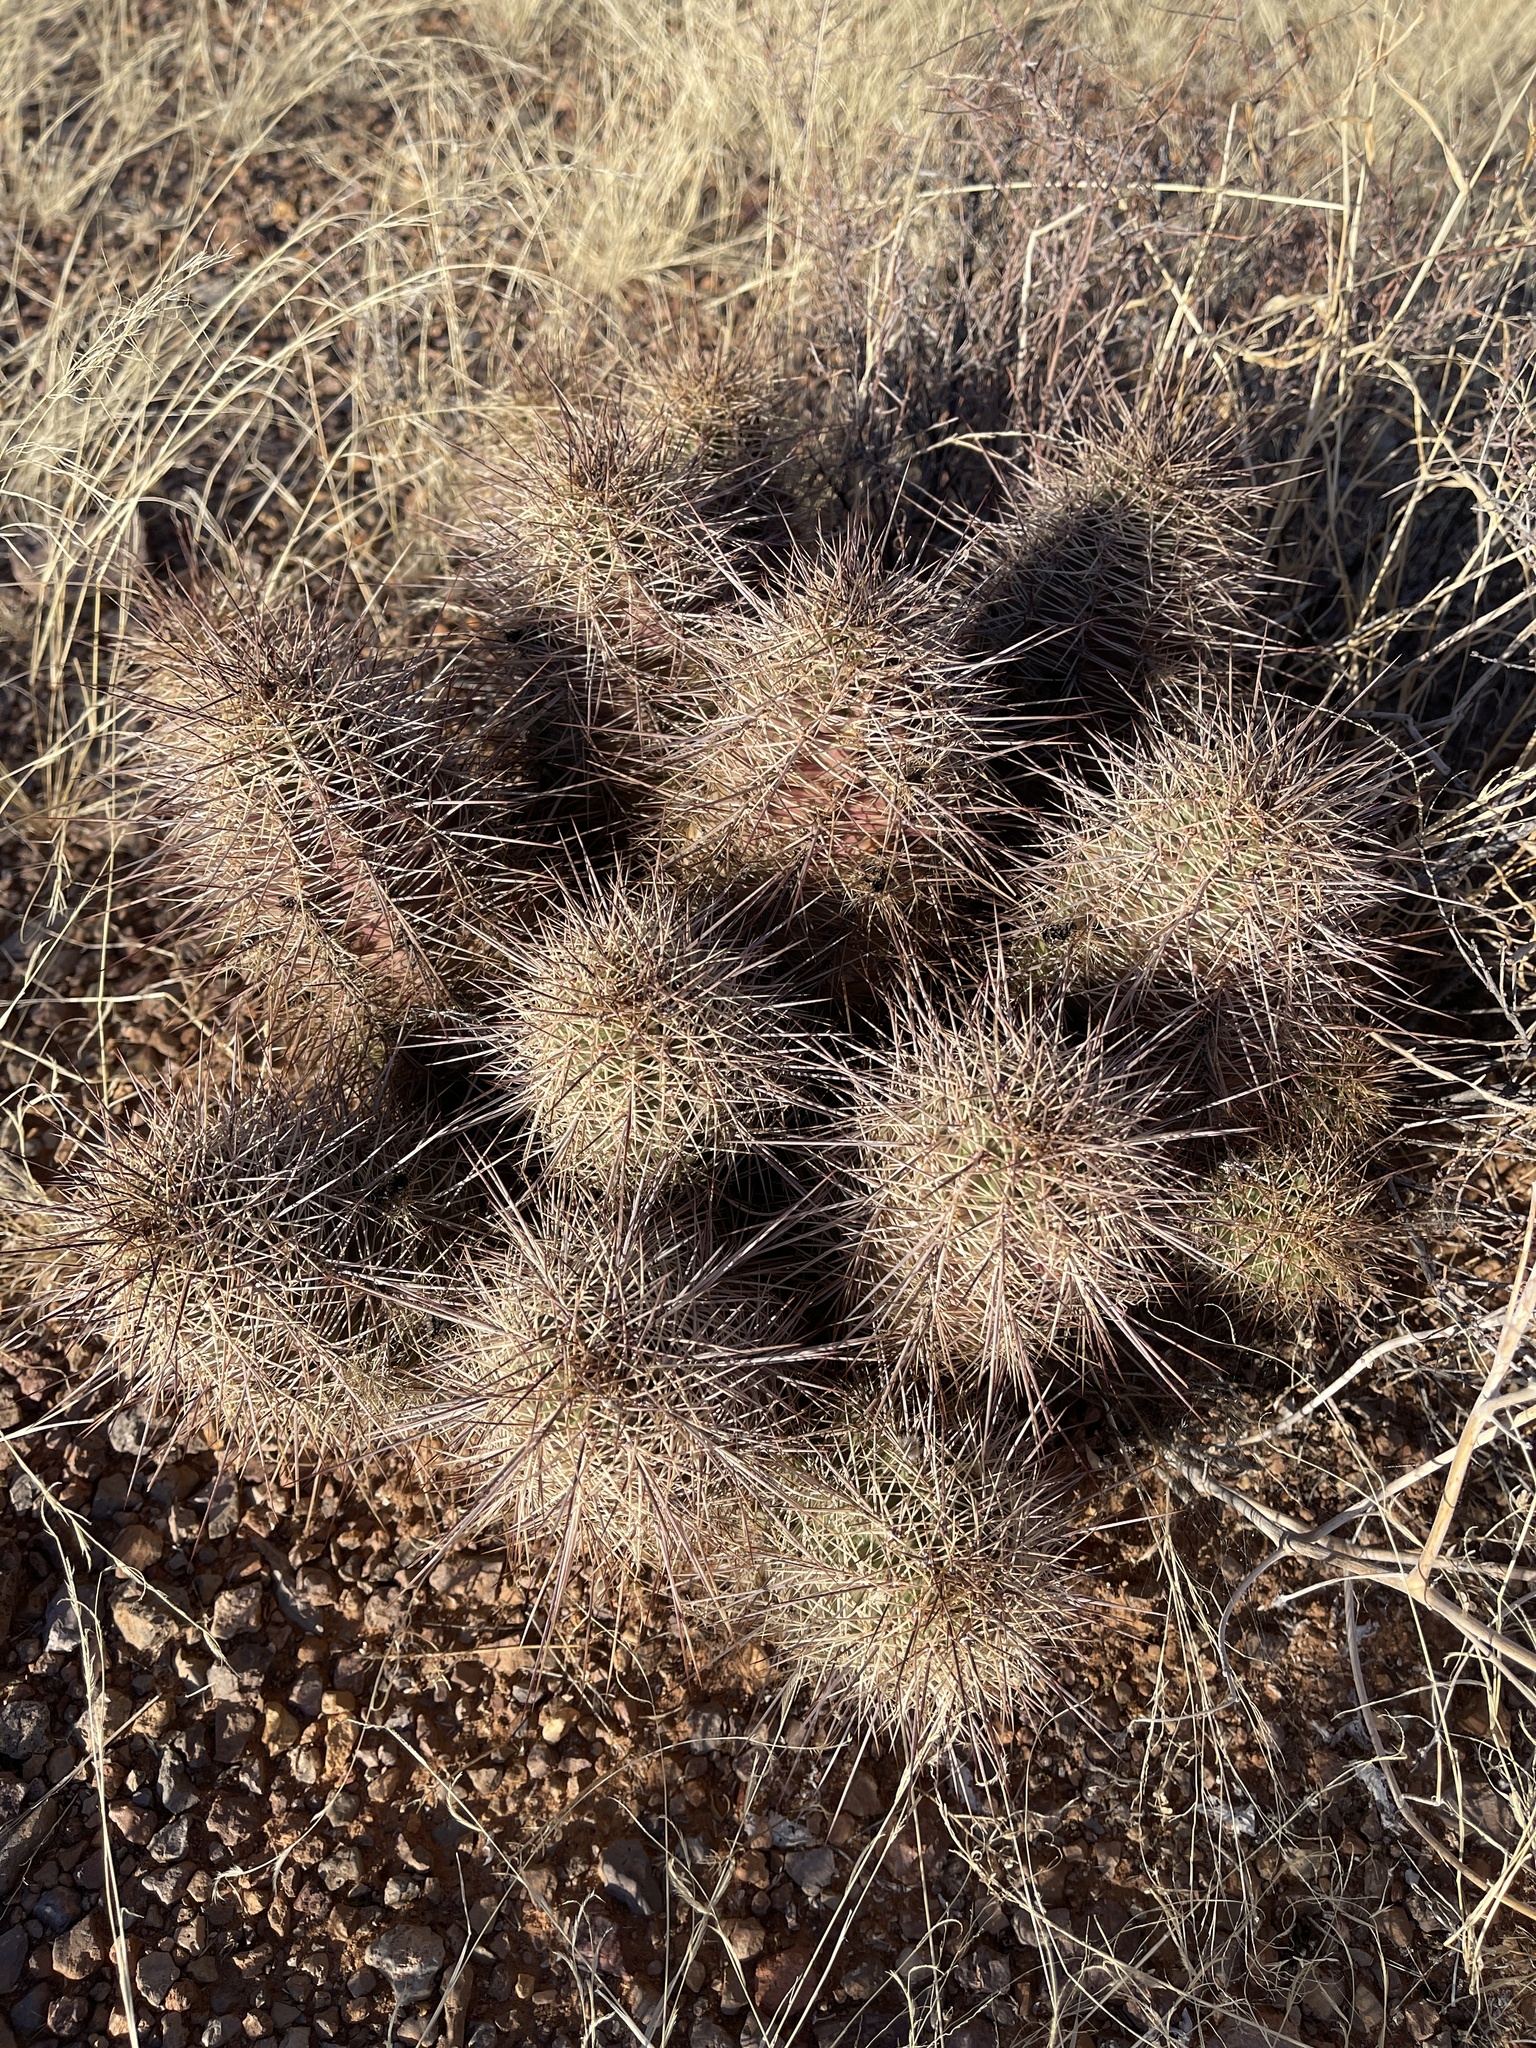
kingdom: Plantae
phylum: Tracheophyta
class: Magnoliopsida
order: Caryophyllales
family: Cactaceae
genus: Echinocereus
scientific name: Echinocereus coccineus
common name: Scarlet hedgehog cactus
